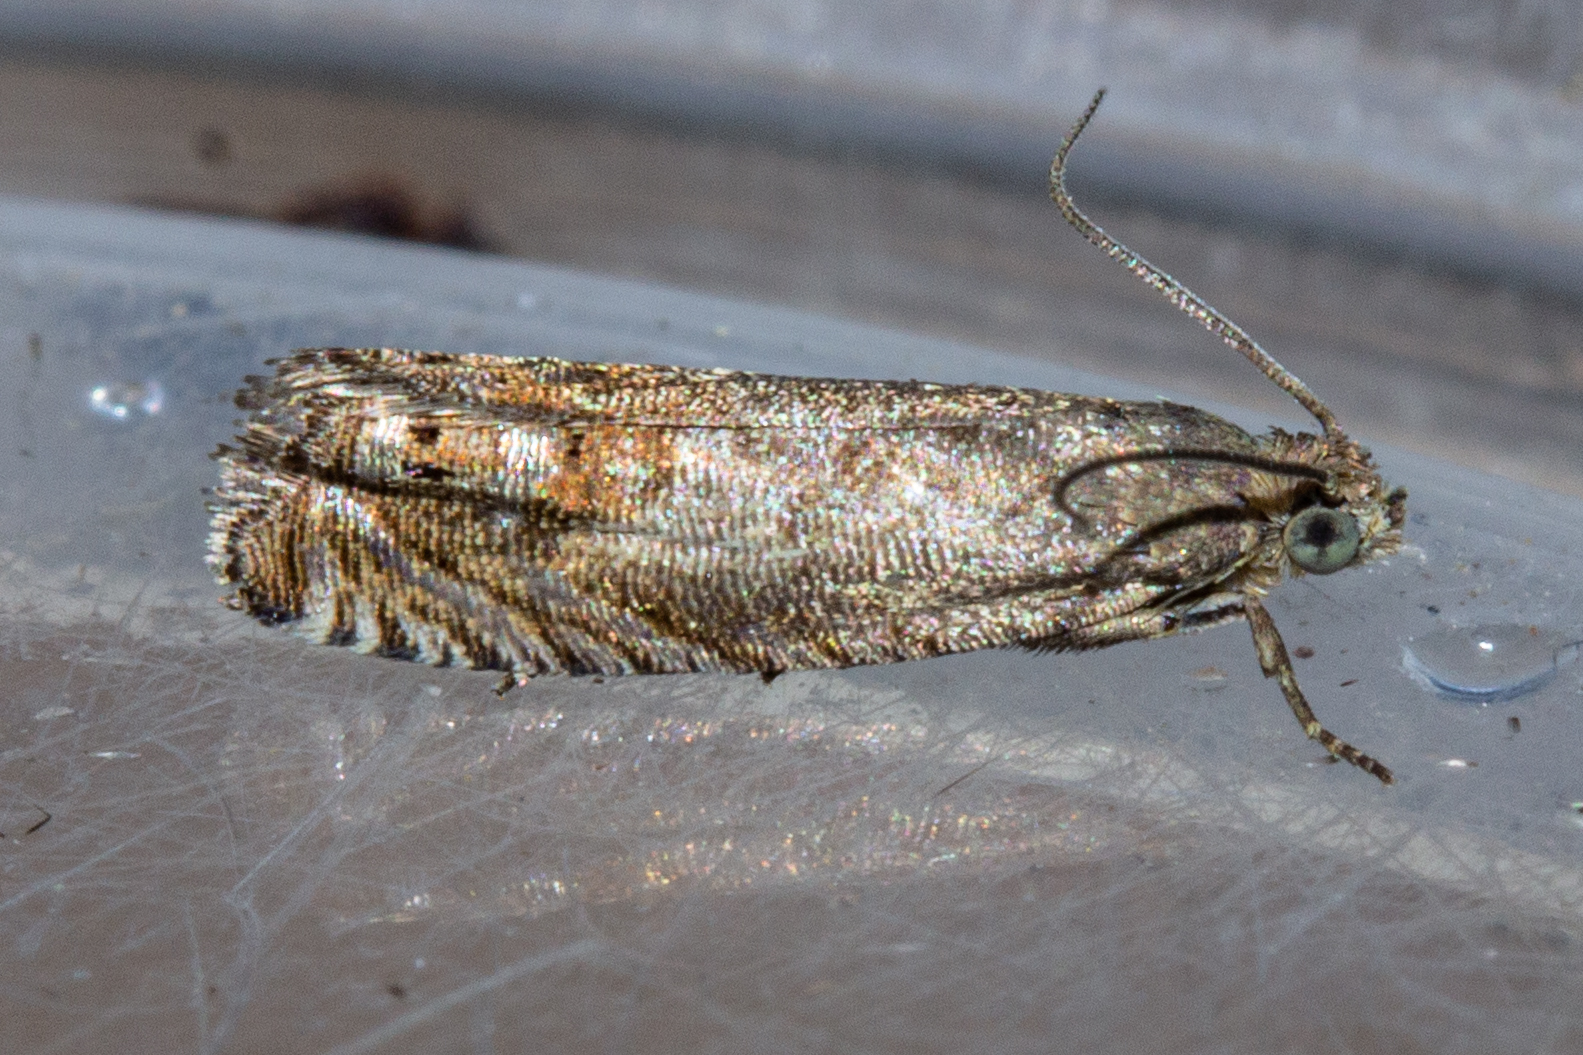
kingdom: Animalia
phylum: Arthropoda
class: Insecta
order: Lepidoptera
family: Tortricidae
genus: Cydia
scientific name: Cydia succedana
